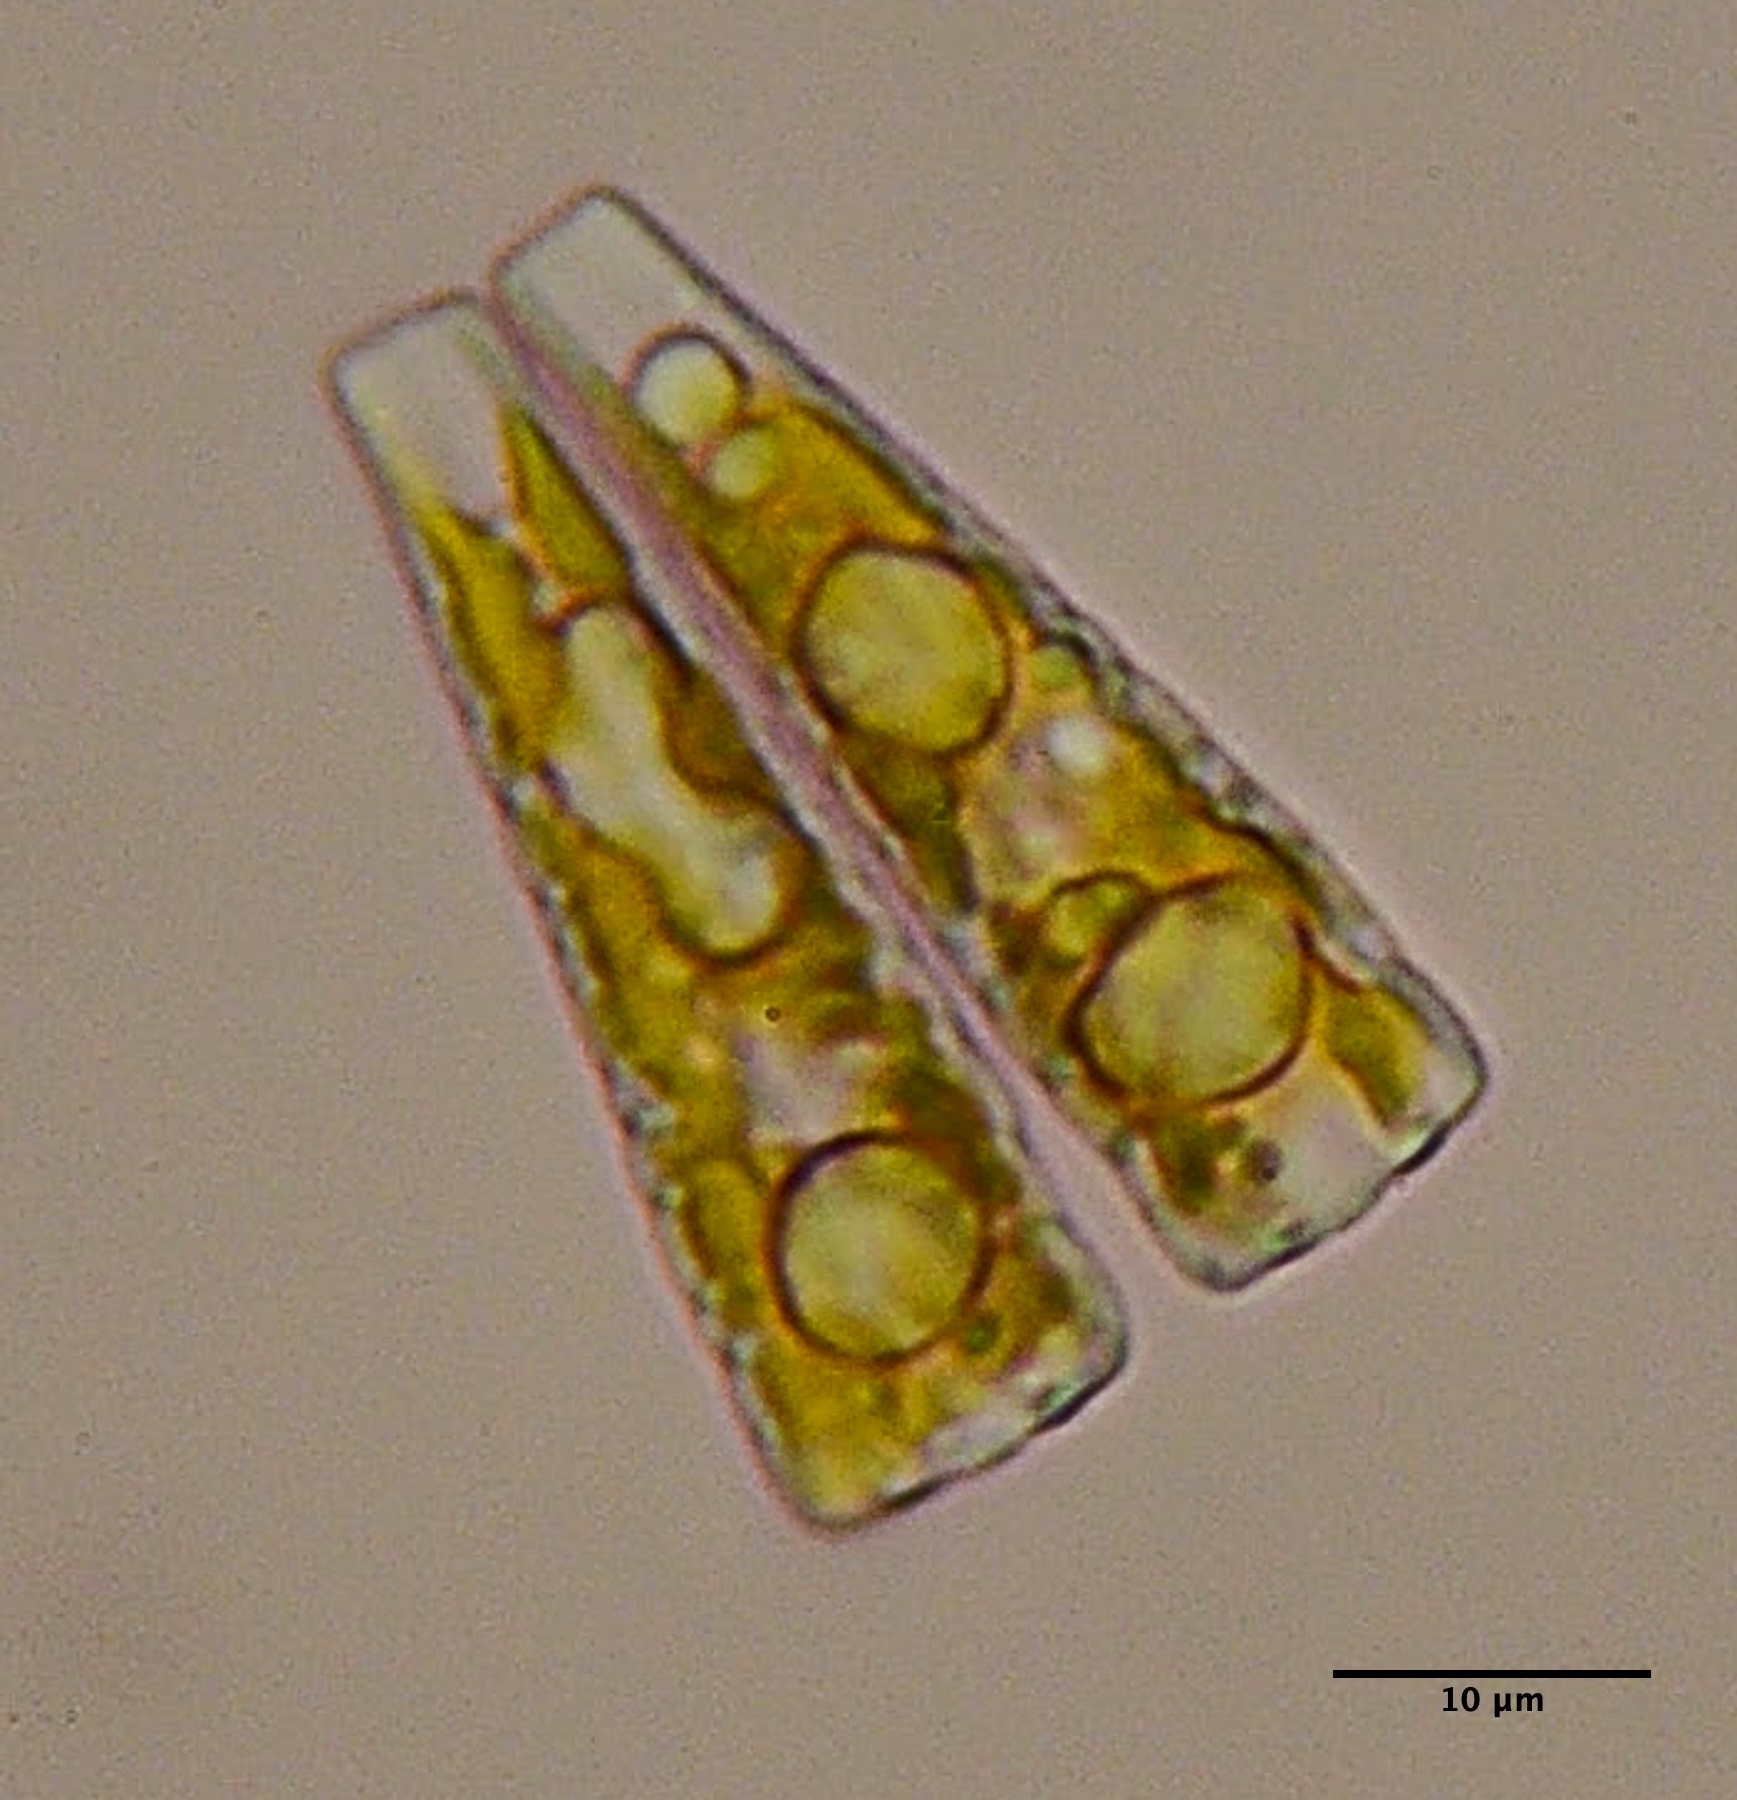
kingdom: Chromista
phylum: Ochrophyta
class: Bacillariophyceae
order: Fragilariales
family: Fragilariaceae
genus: Meridion
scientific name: Meridion circulare
